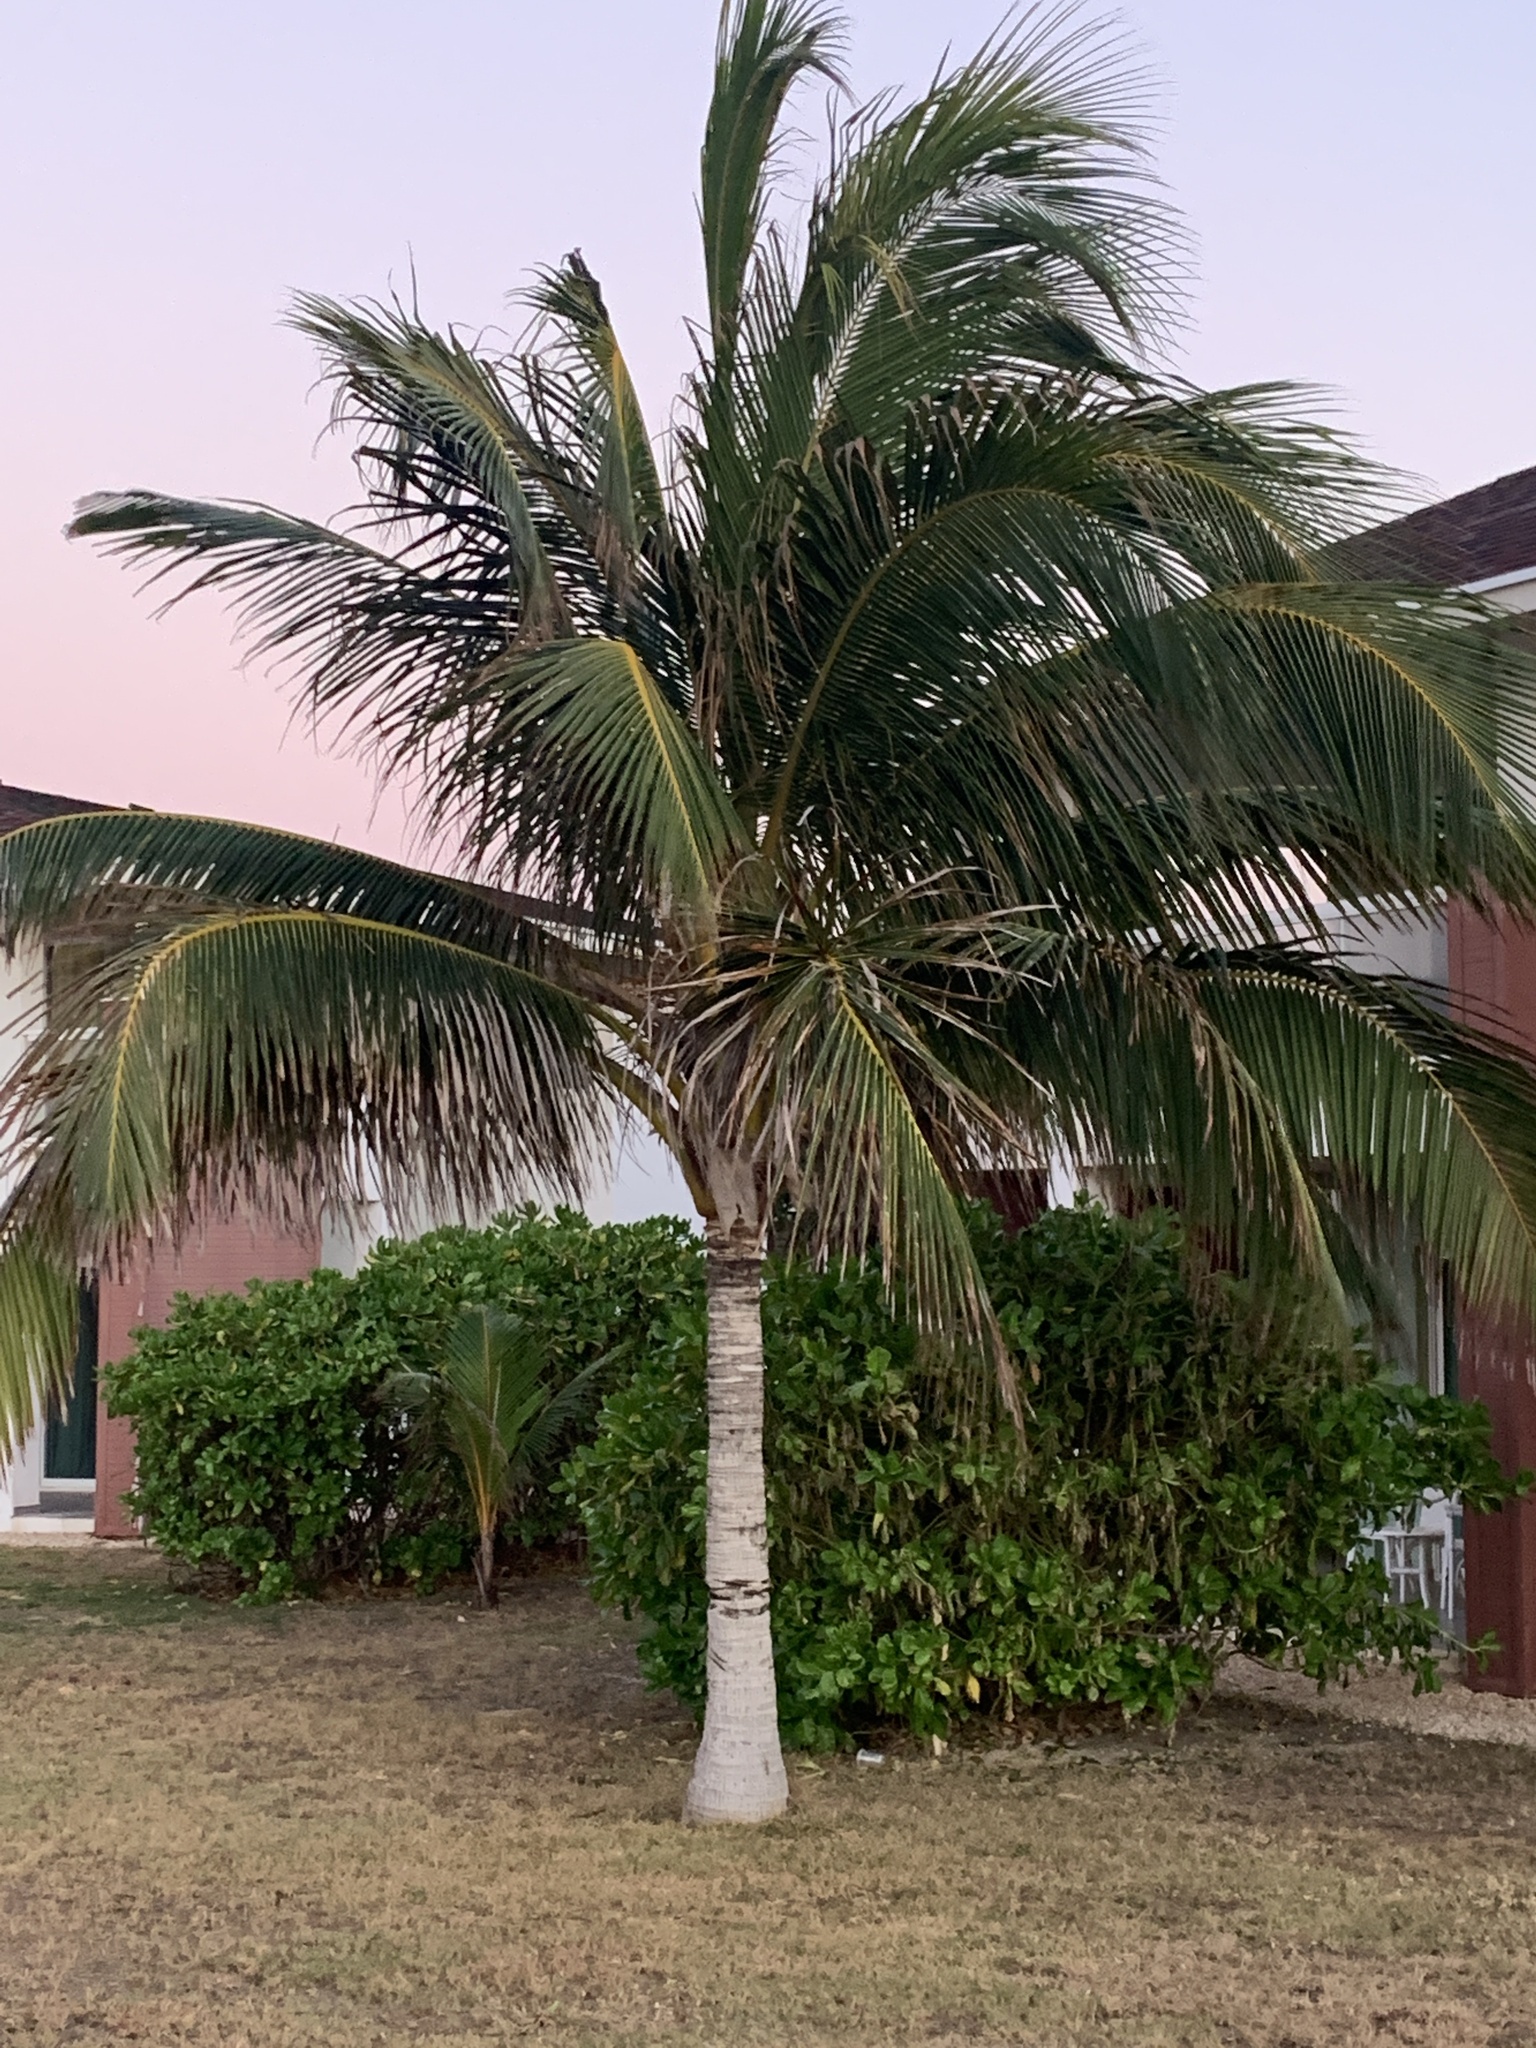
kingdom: Plantae
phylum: Tracheophyta
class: Liliopsida
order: Arecales
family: Arecaceae
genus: Cocos
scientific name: Cocos nucifera
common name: Coconut palm
